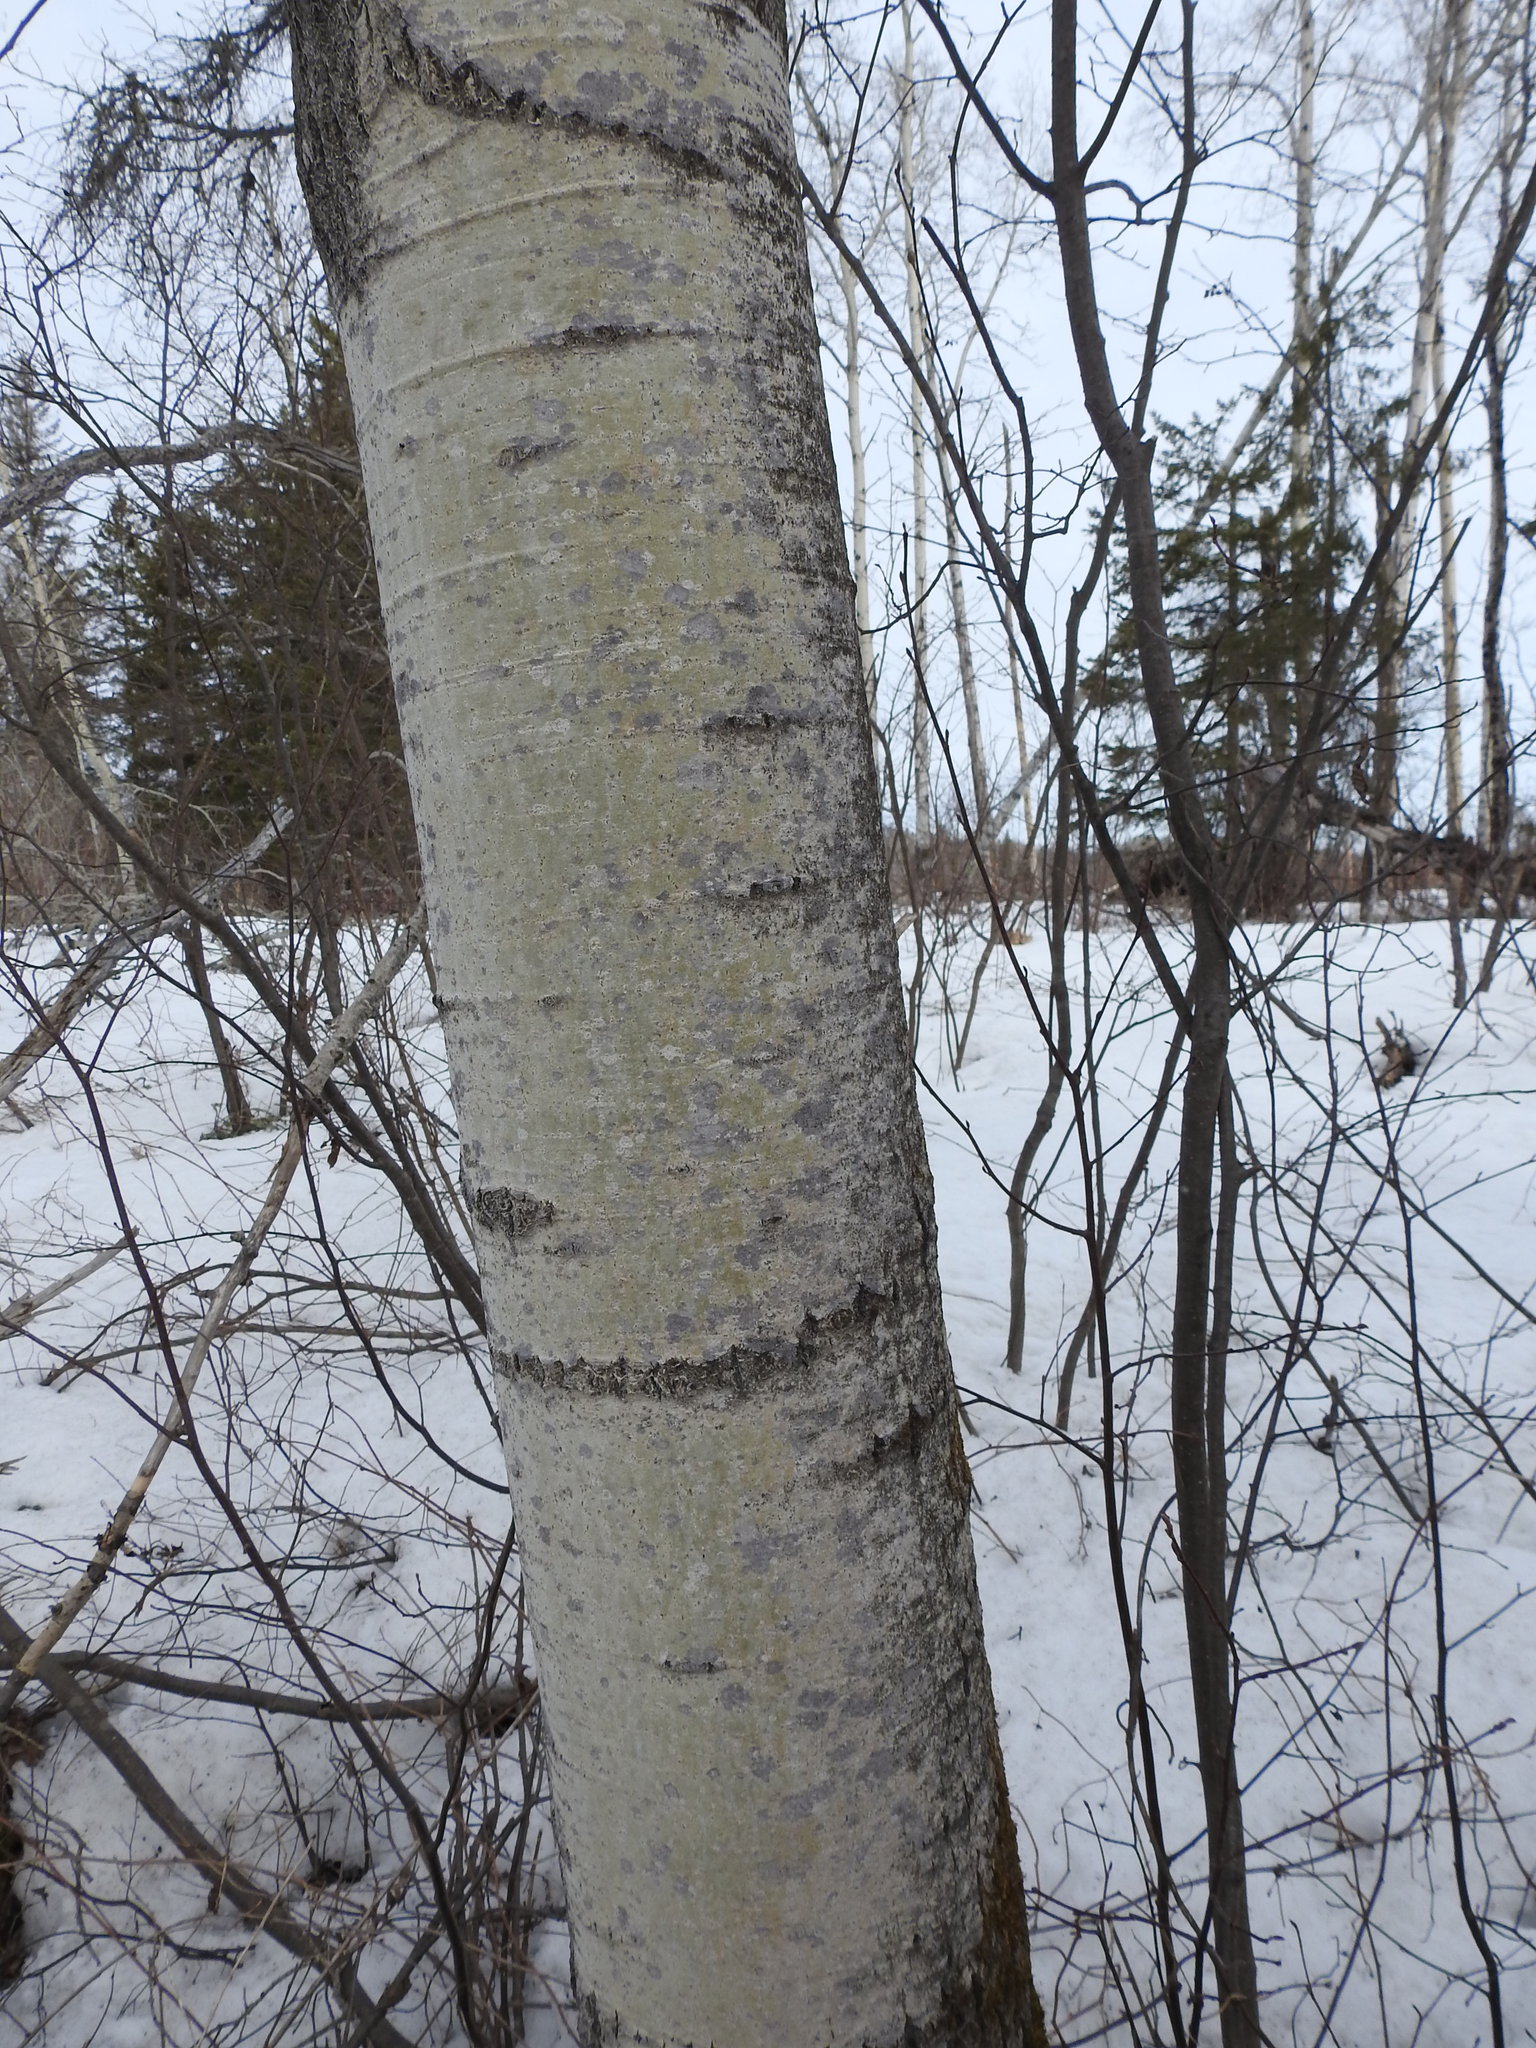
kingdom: Plantae
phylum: Tracheophyta
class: Magnoliopsida
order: Malpighiales
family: Salicaceae
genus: Populus
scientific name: Populus tremuloides
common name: Quaking aspen
